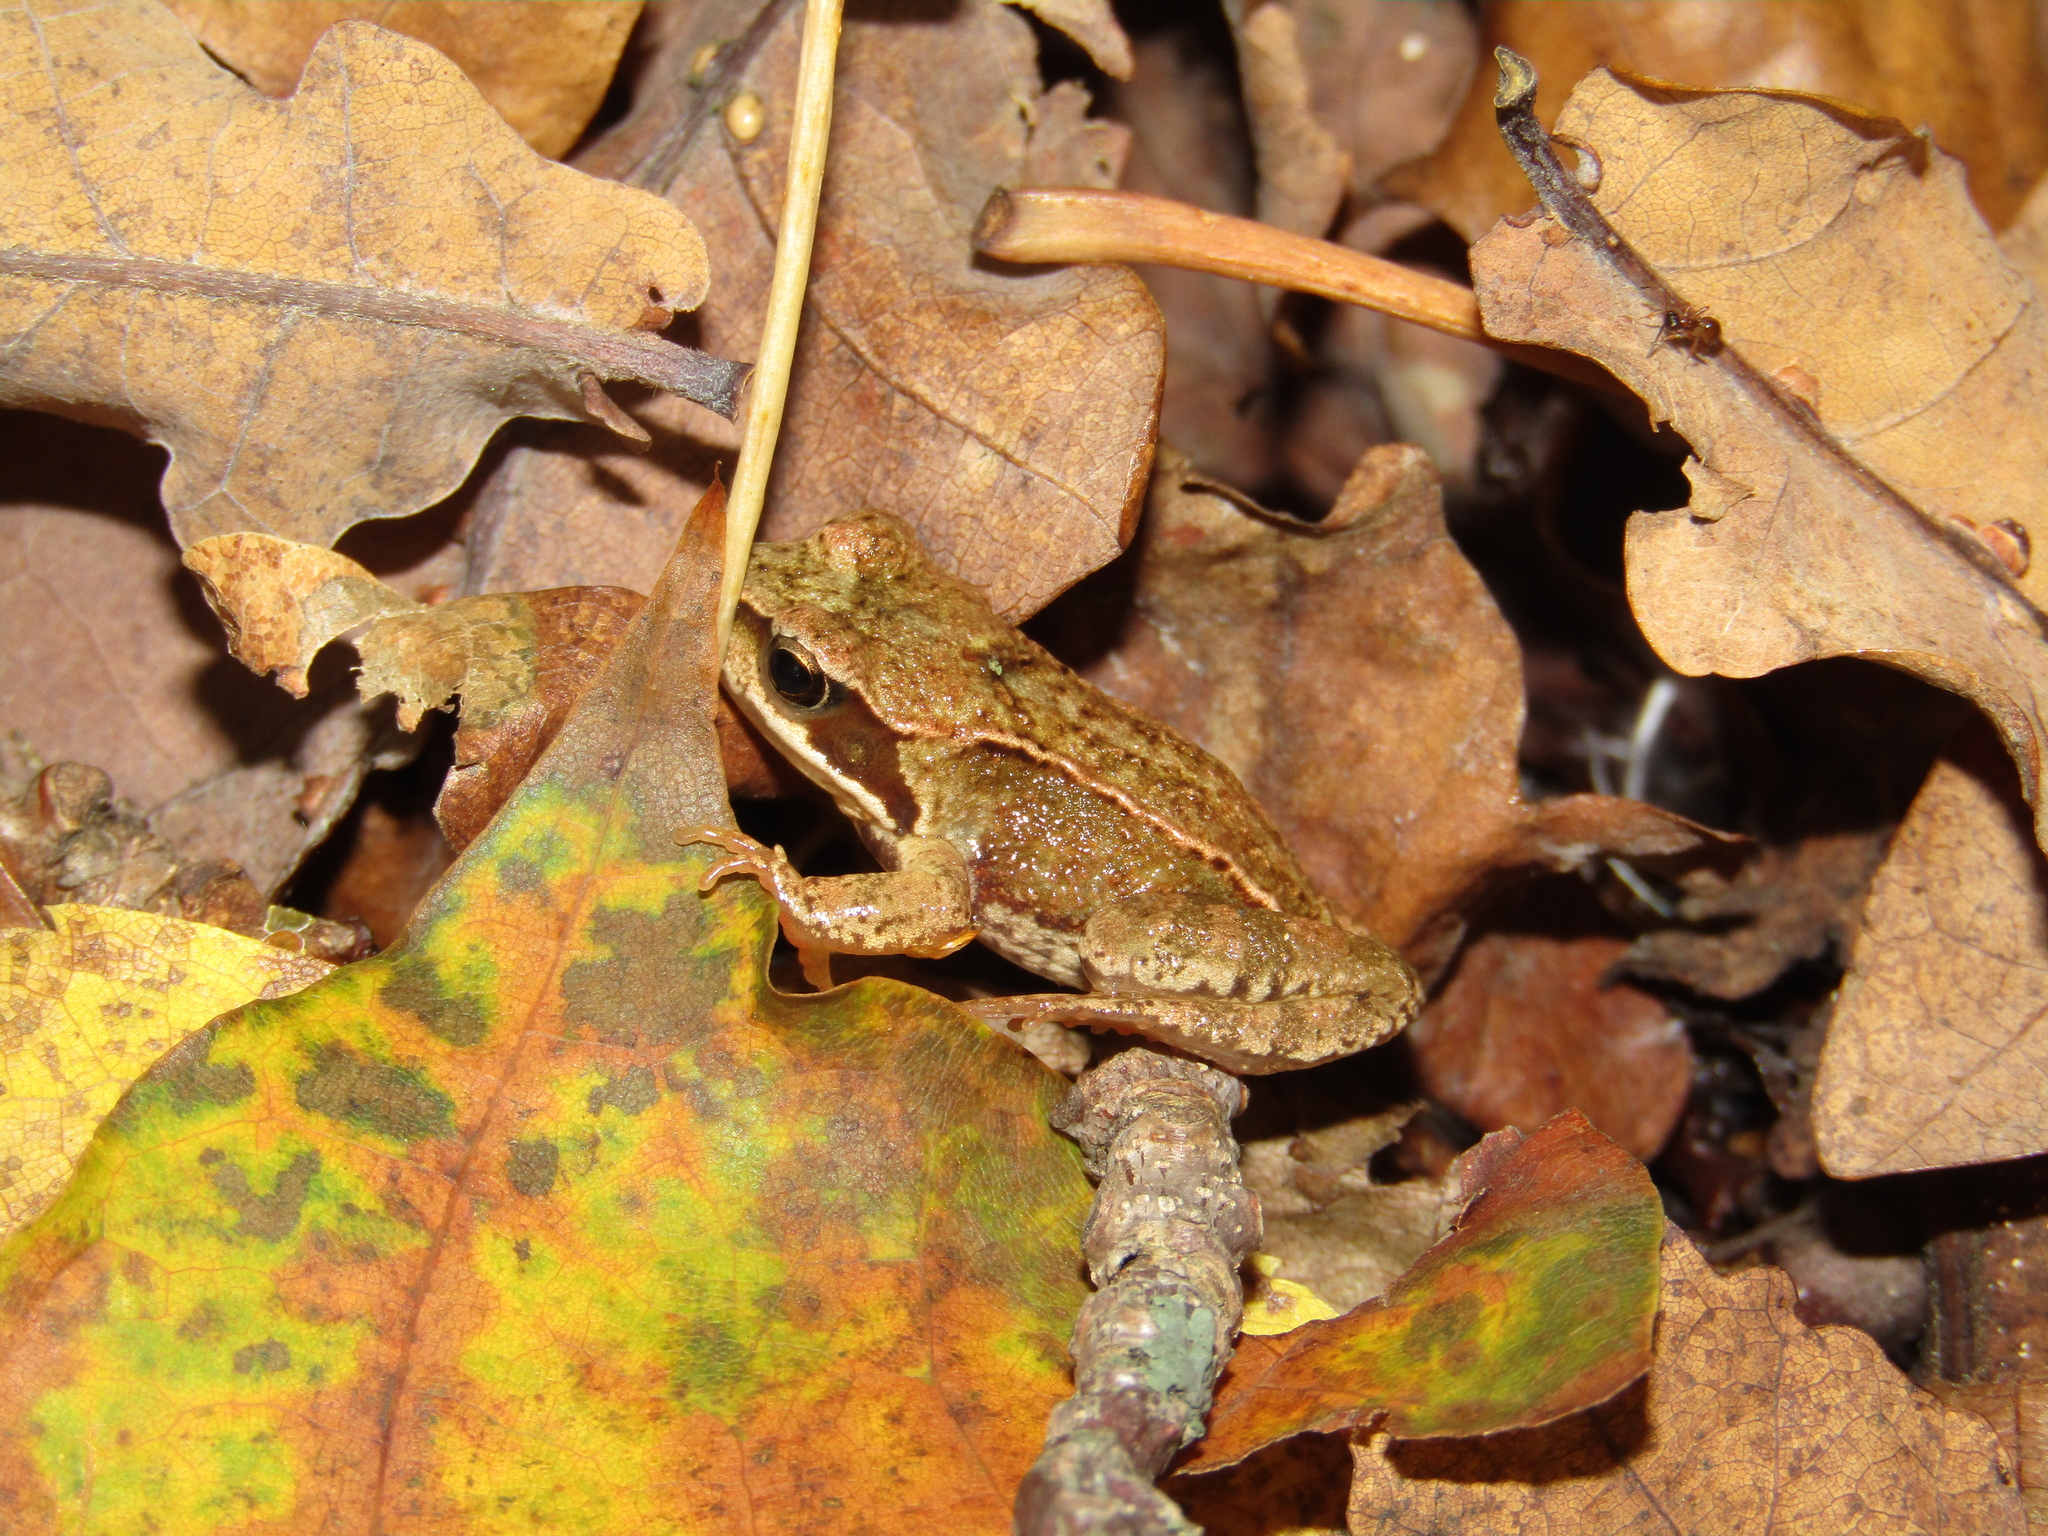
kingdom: Animalia
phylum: Chordata
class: Amphibia
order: Anura
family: Ranidae
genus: Rana
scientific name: Rana temporaria
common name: Common frog
